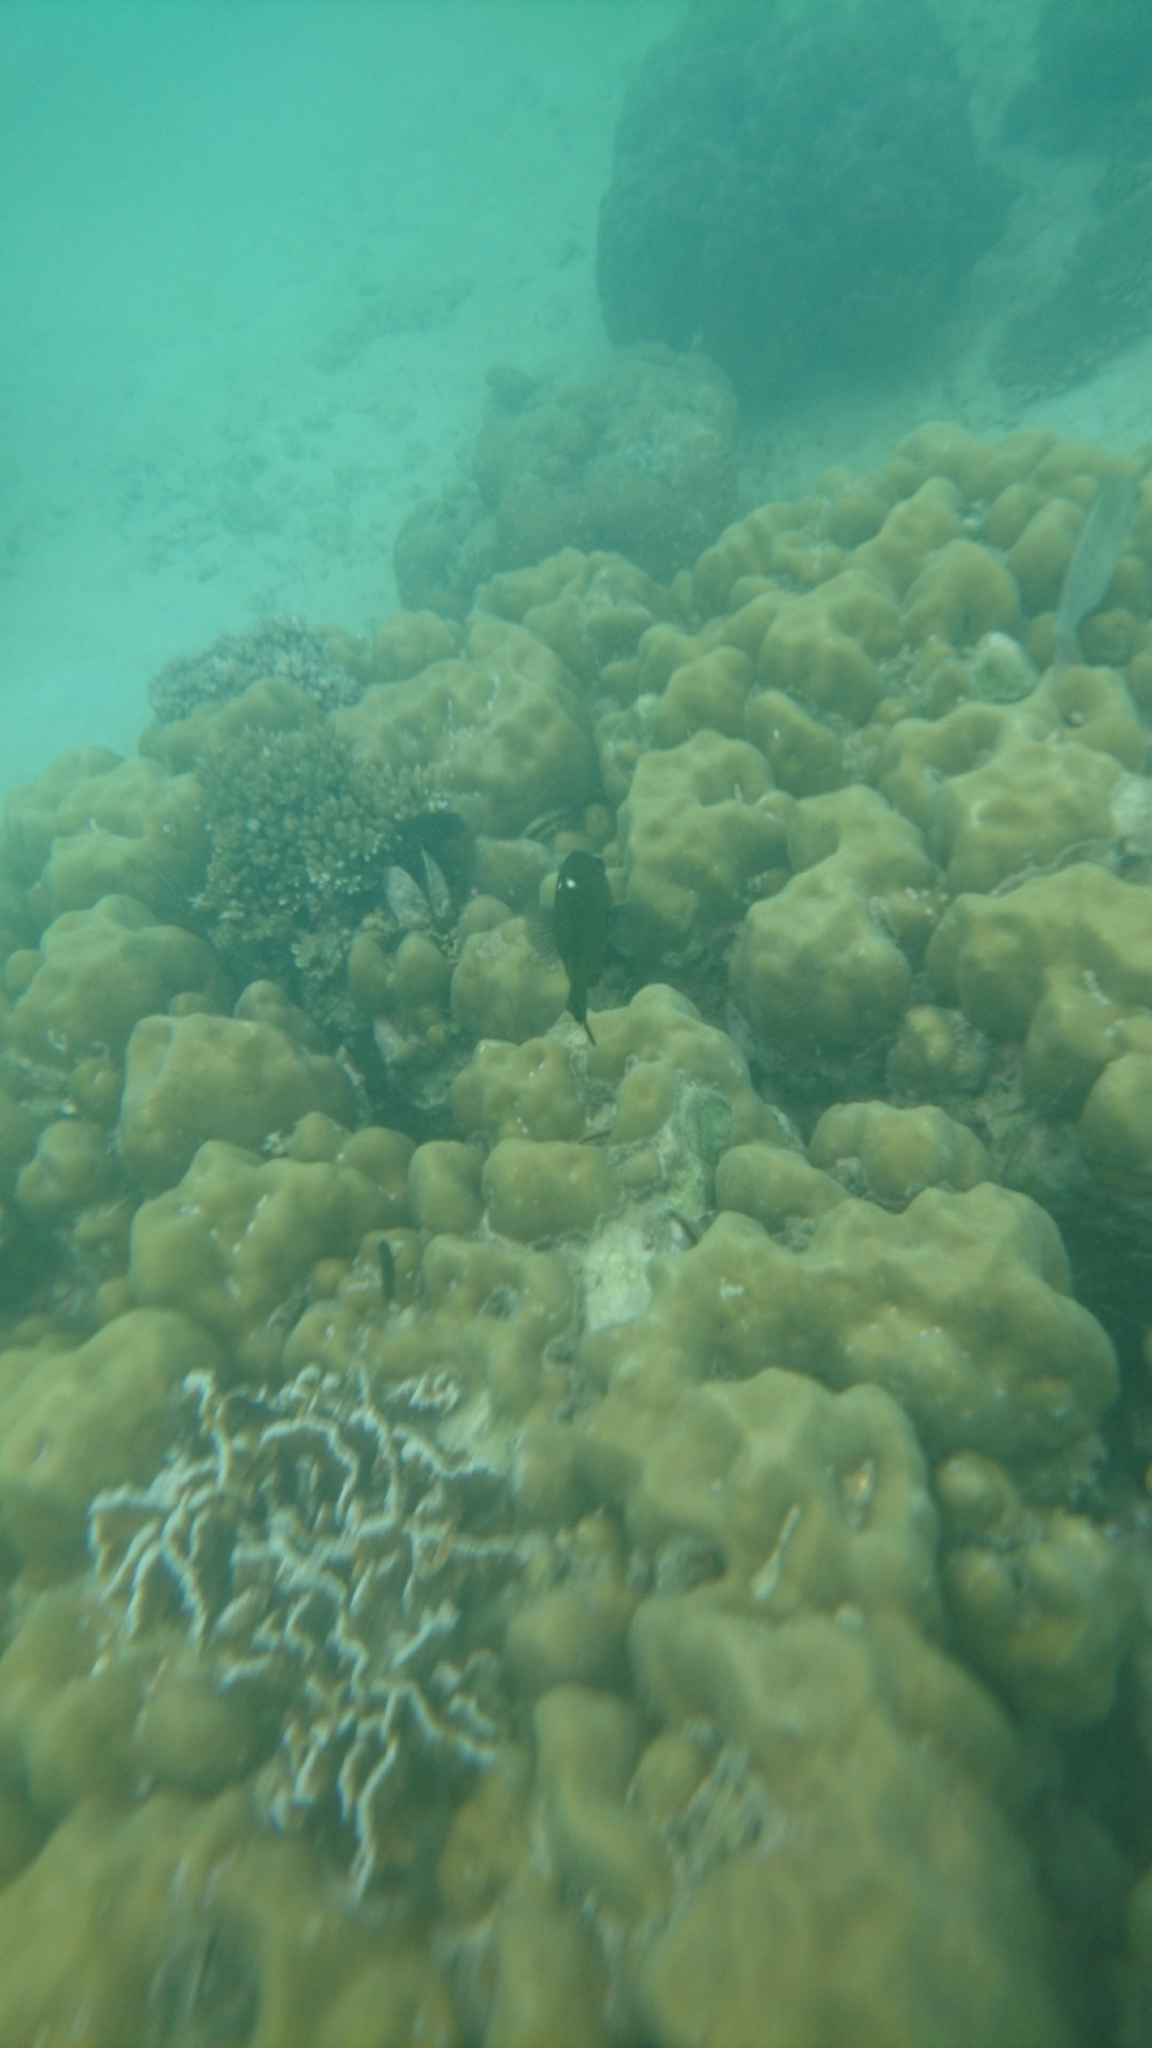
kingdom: Animalia
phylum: Chordata
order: Perciformes
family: Pomacentridae
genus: Dischistodus
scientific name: Dischistodus chrysopoecilus
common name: White-spot damsel
